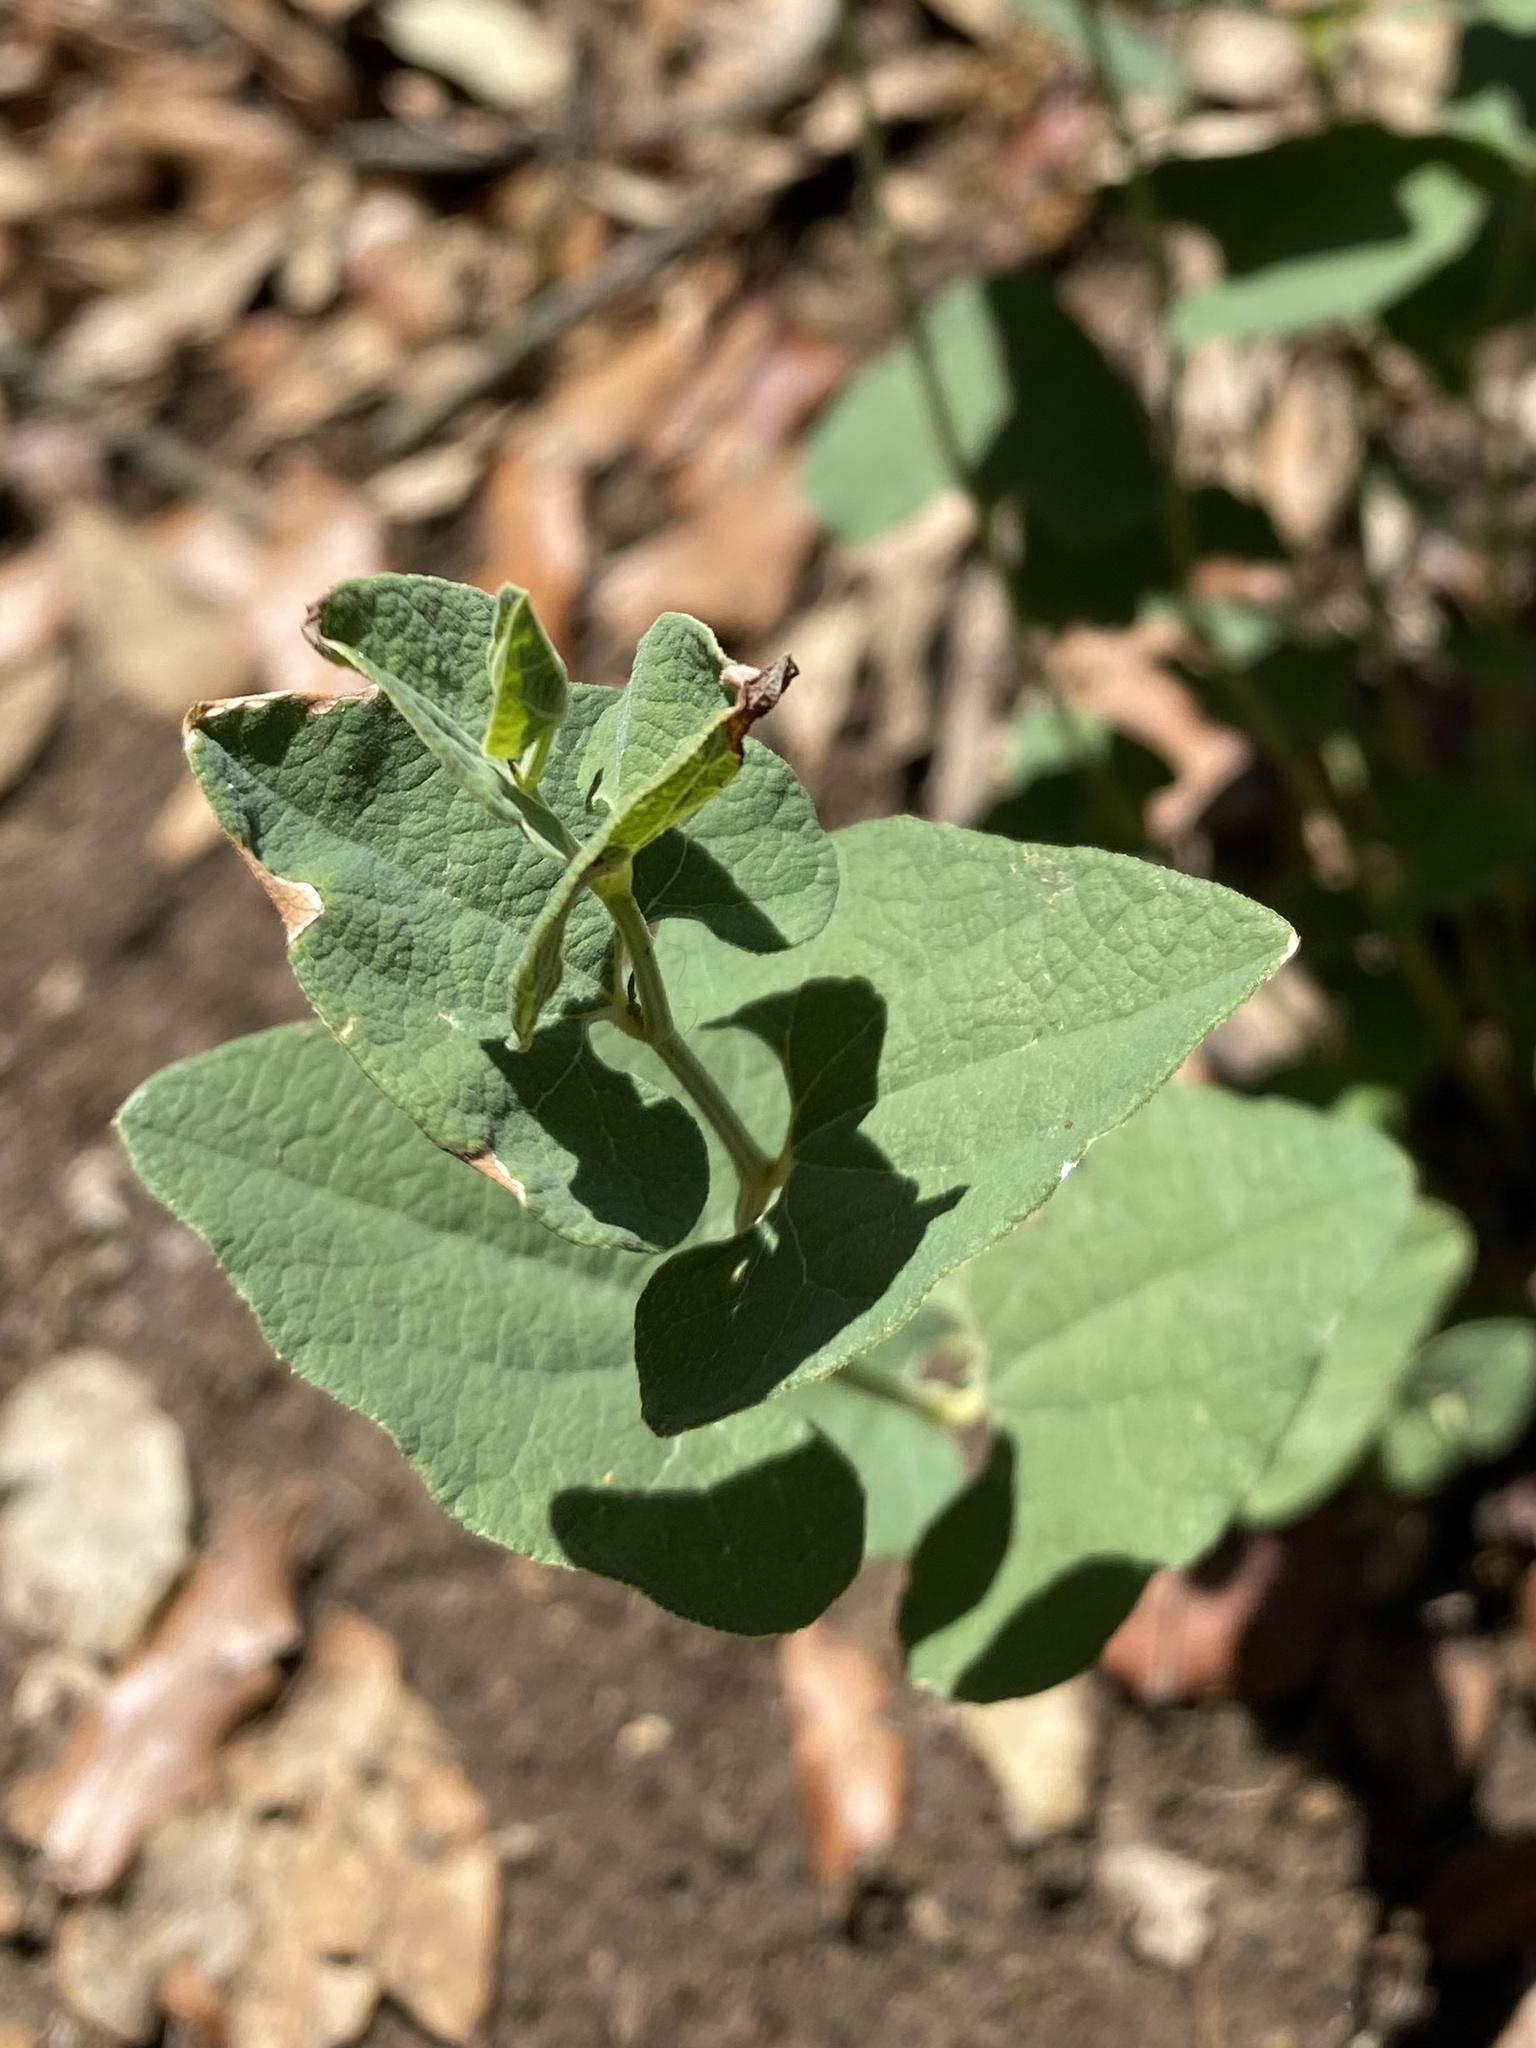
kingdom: Plantae
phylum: Tracheophyta
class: Magnoliopsida
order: Piperales
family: Aristolochiaceae
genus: Aristolochia
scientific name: Aristolochia pistolochia
